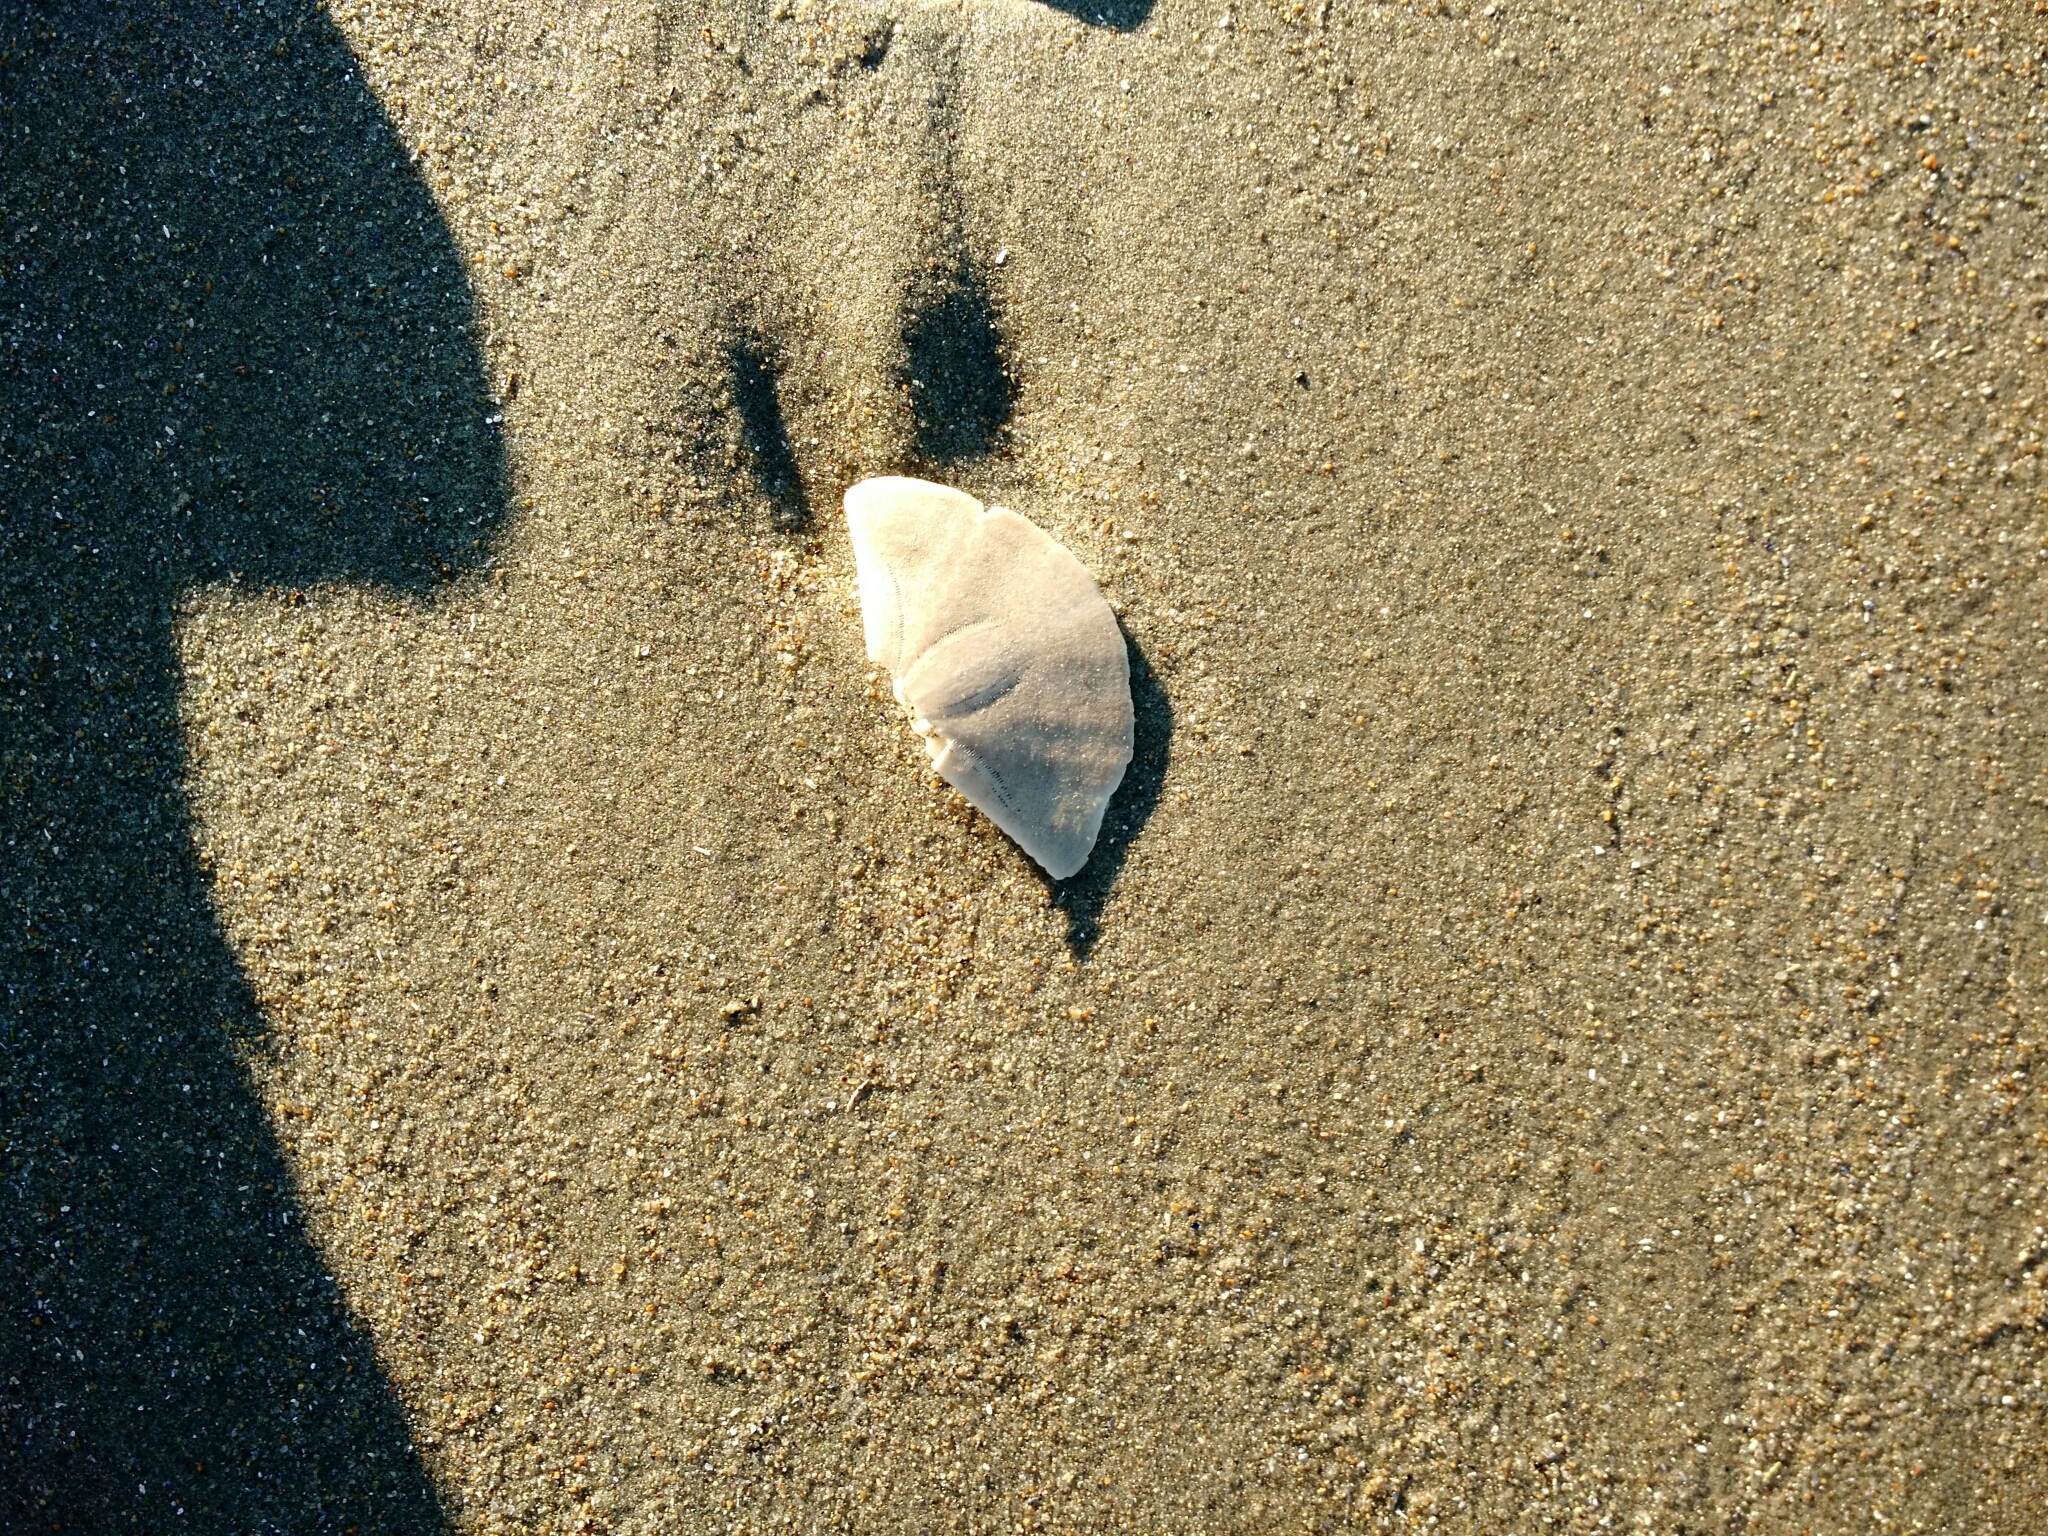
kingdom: Animalia
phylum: Echinodermata
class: Echinoidea
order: Echinolampadacea
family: Echinarachniidae
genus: Echinarachnius
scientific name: Echinarachnius parma
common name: Common sand dollar
